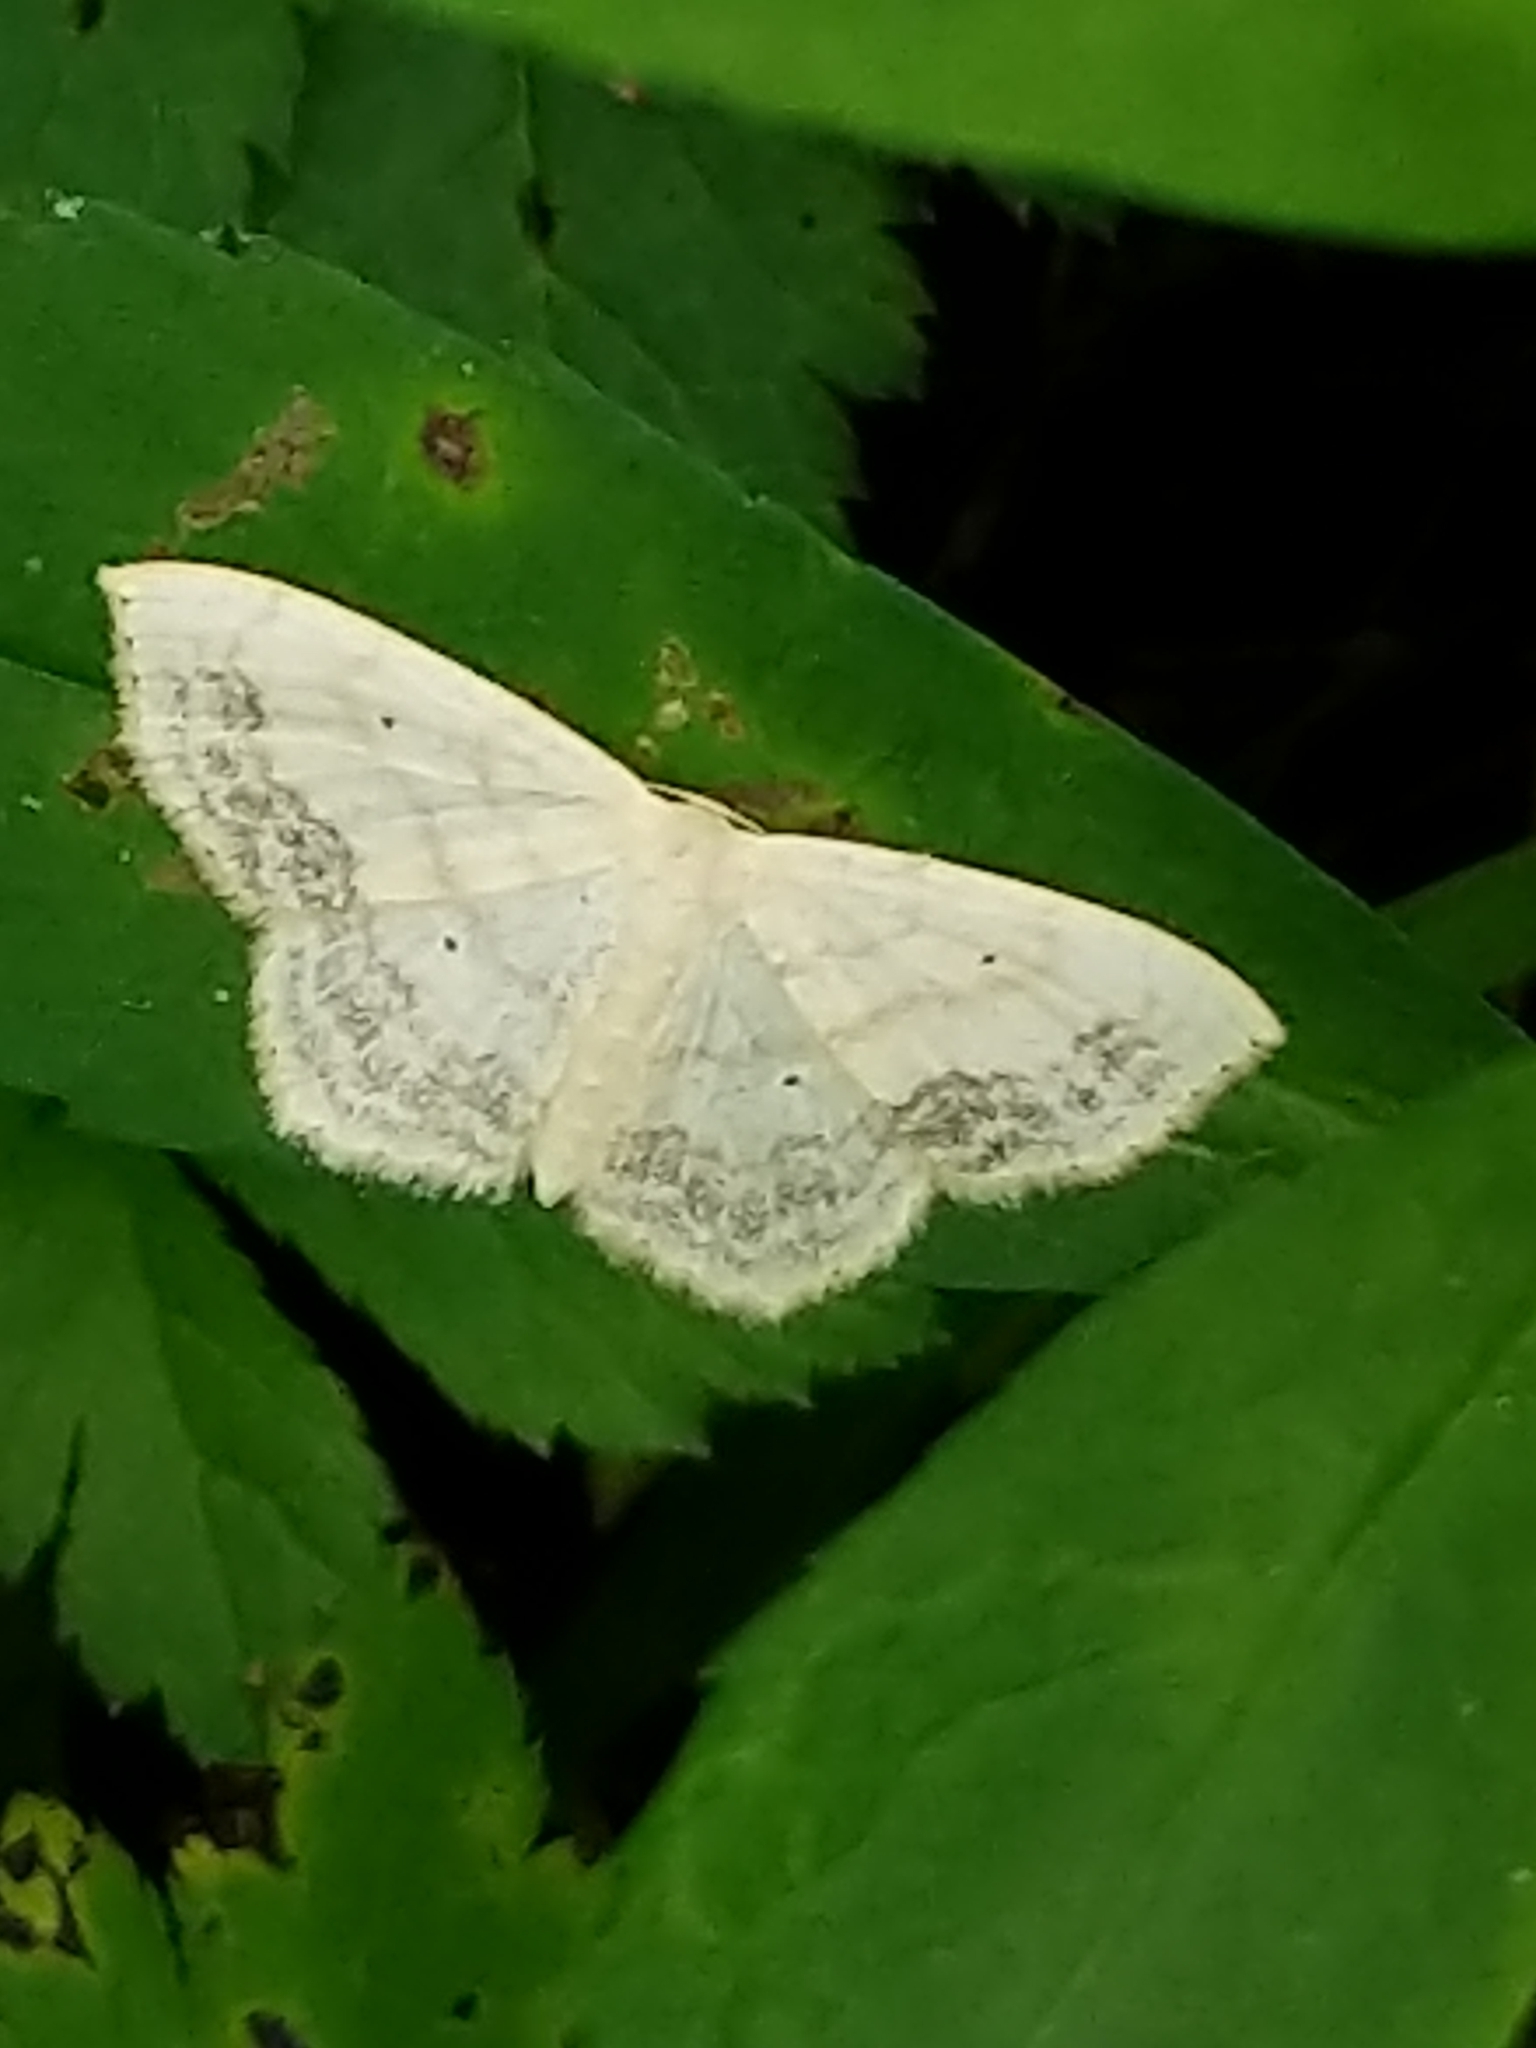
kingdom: Animalia
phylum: Arthropoda
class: Insecta
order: Lepidoptera
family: Geometridae
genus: Scopula
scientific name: Scopula limboundata
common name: Large lace border
